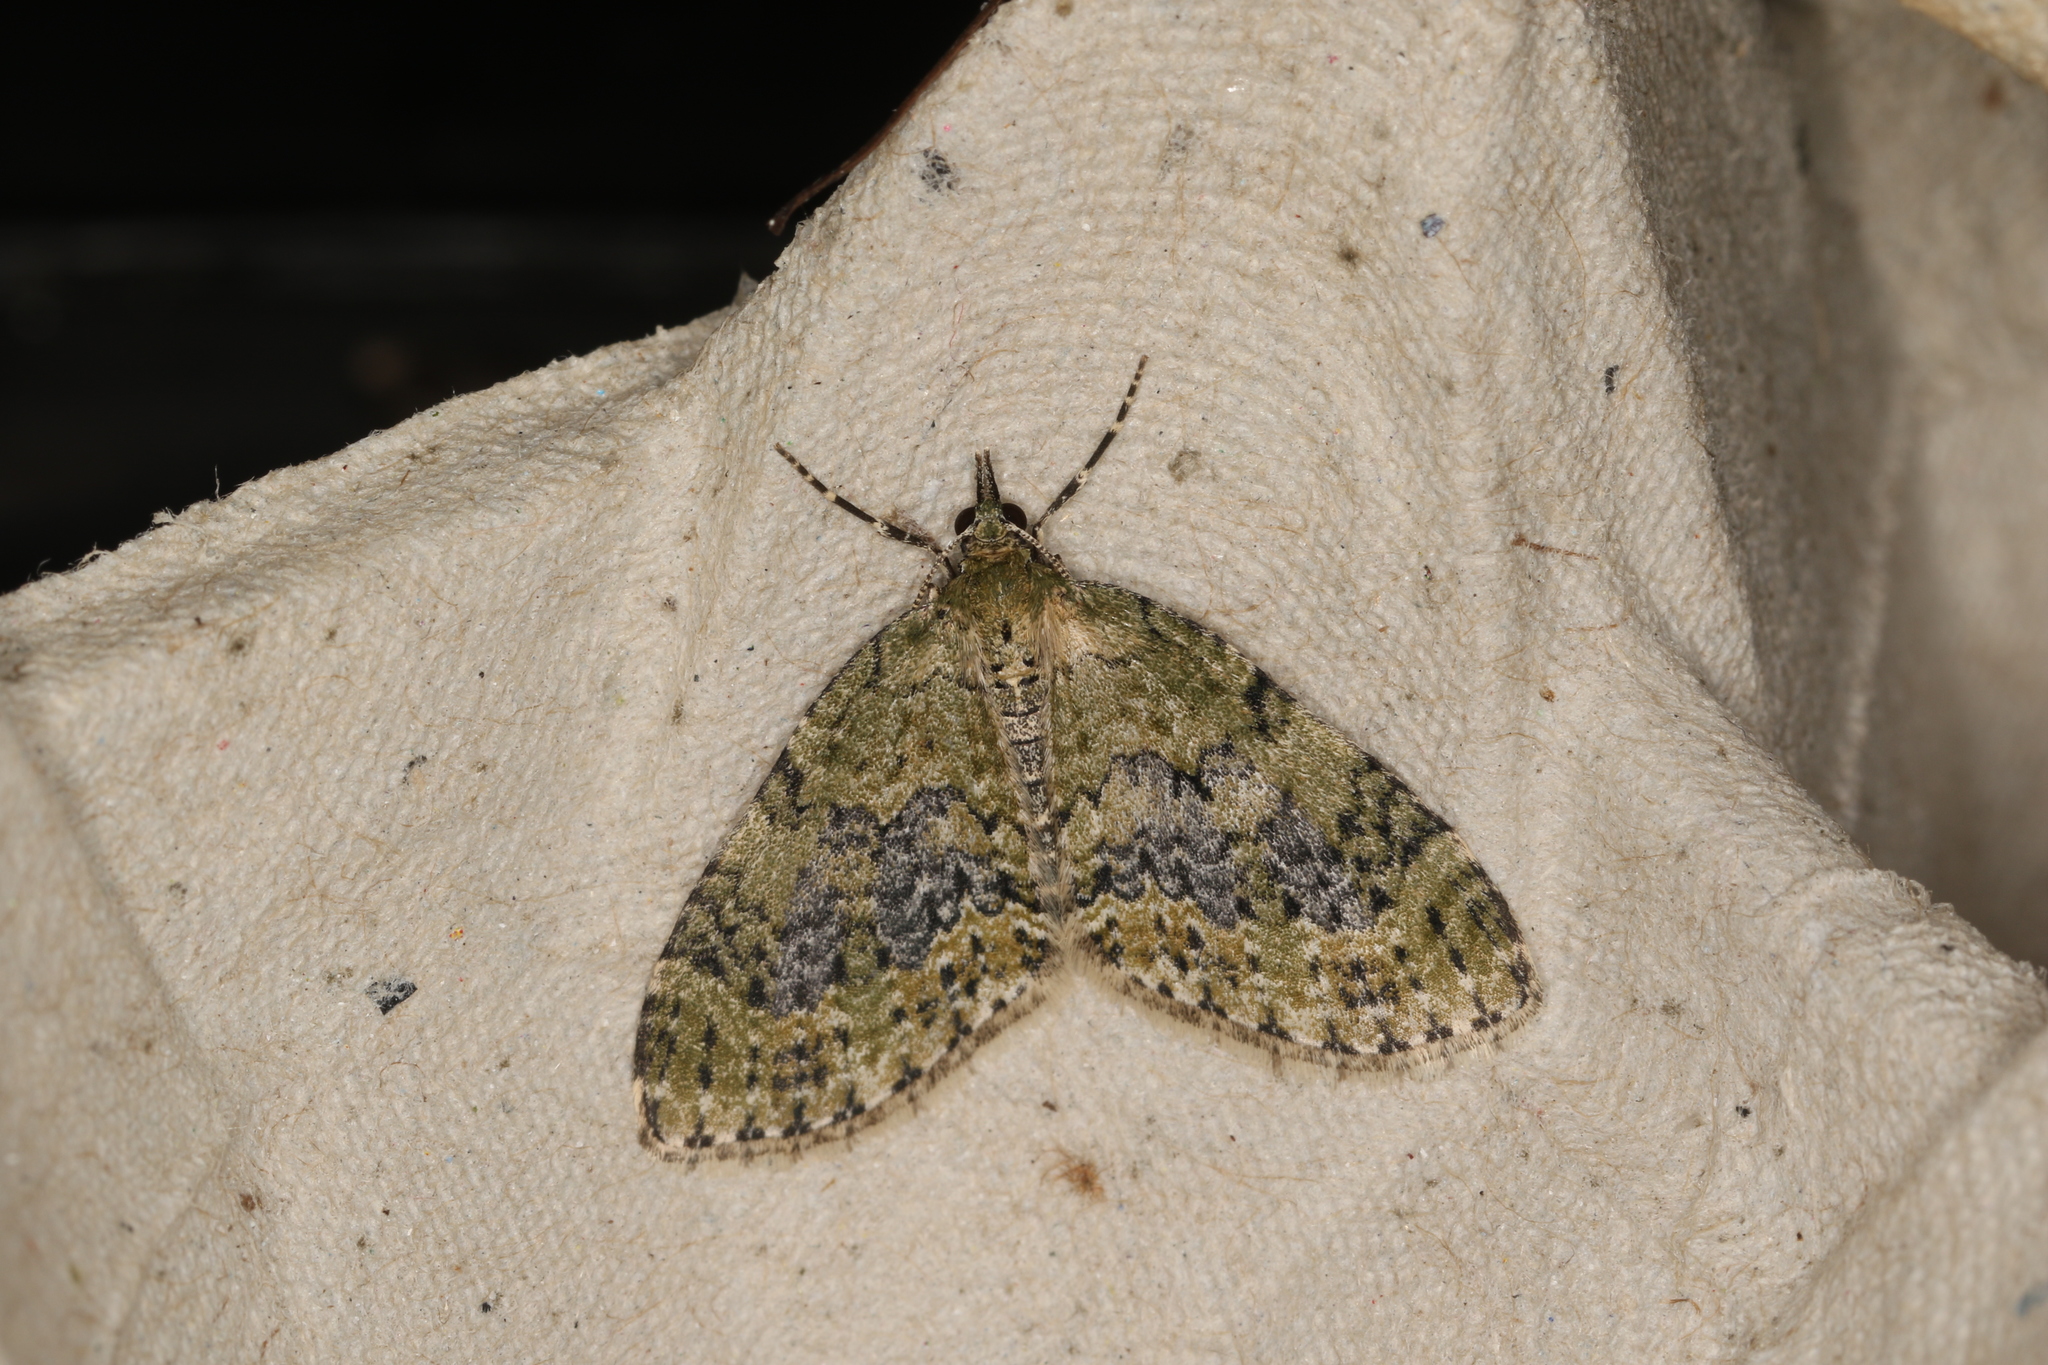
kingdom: Animalia
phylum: Arthropoda
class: Insecta
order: Lepidoptera
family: Geometridae
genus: Acasis
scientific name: Acasis viretata
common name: Yellow-barred brindle
